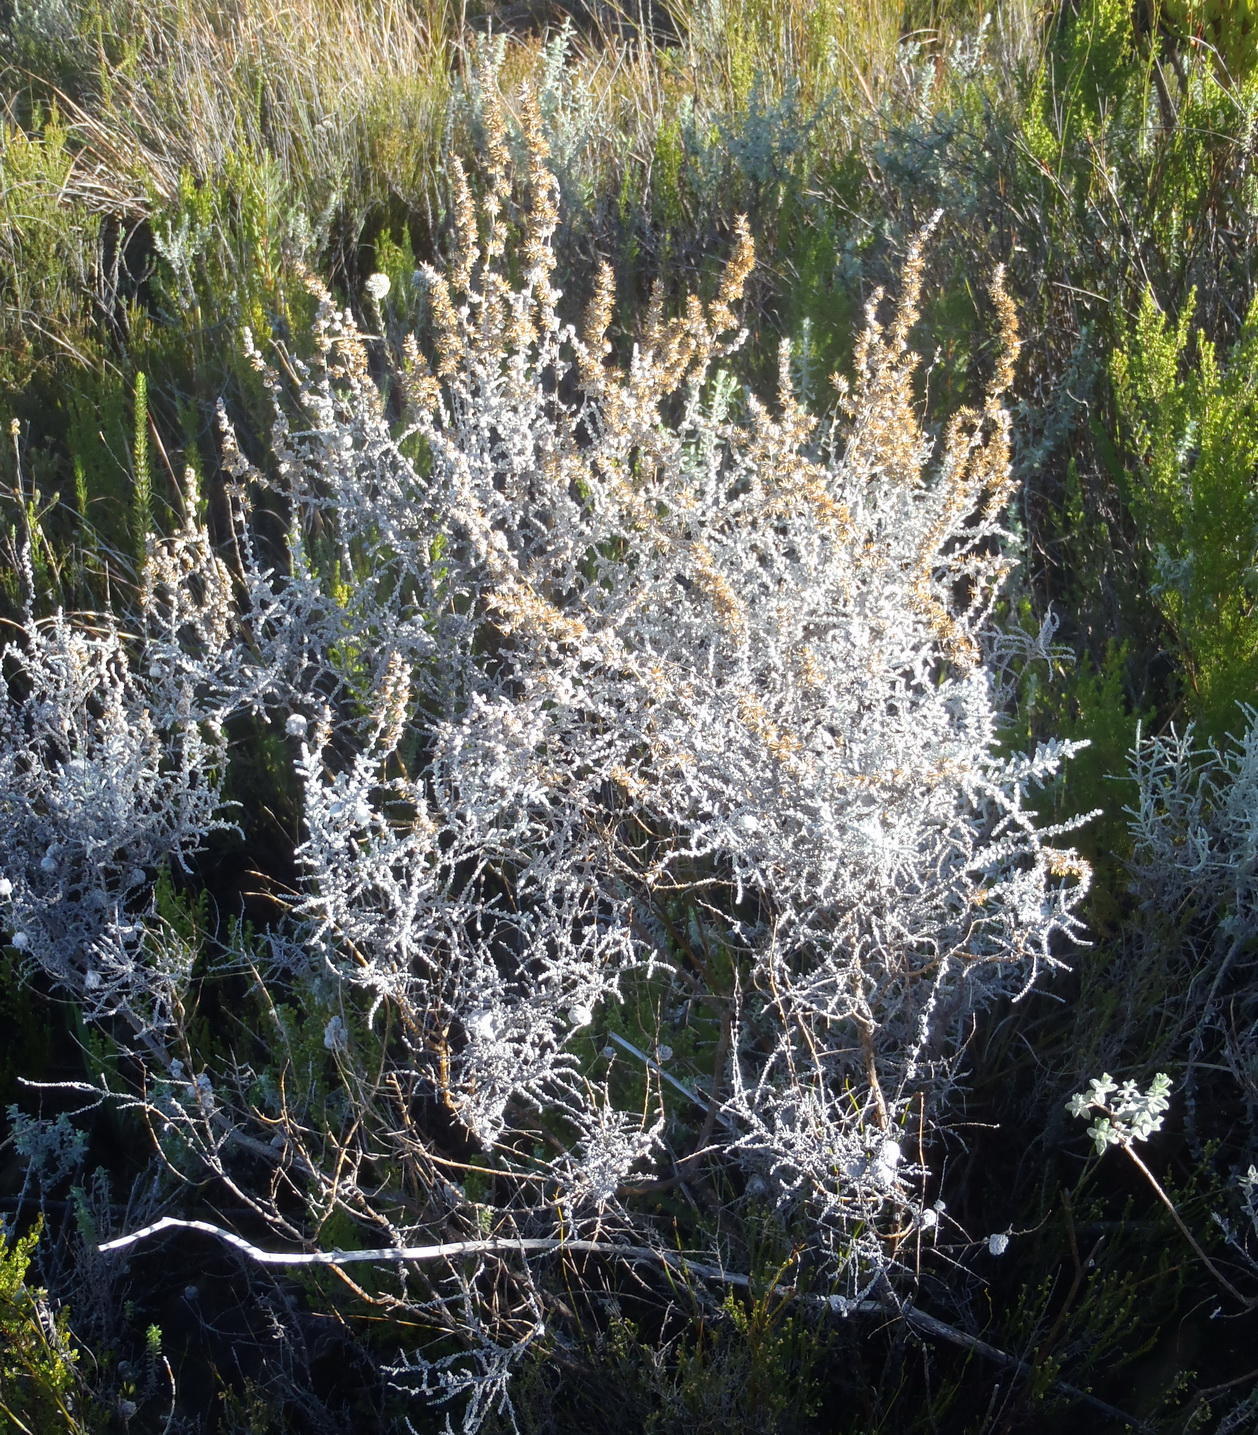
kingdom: Plantae
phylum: Tracheophyta
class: Magnoliopsida
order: Asterales
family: Asteraceae
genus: Seriphium
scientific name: Seriphium plumosum
